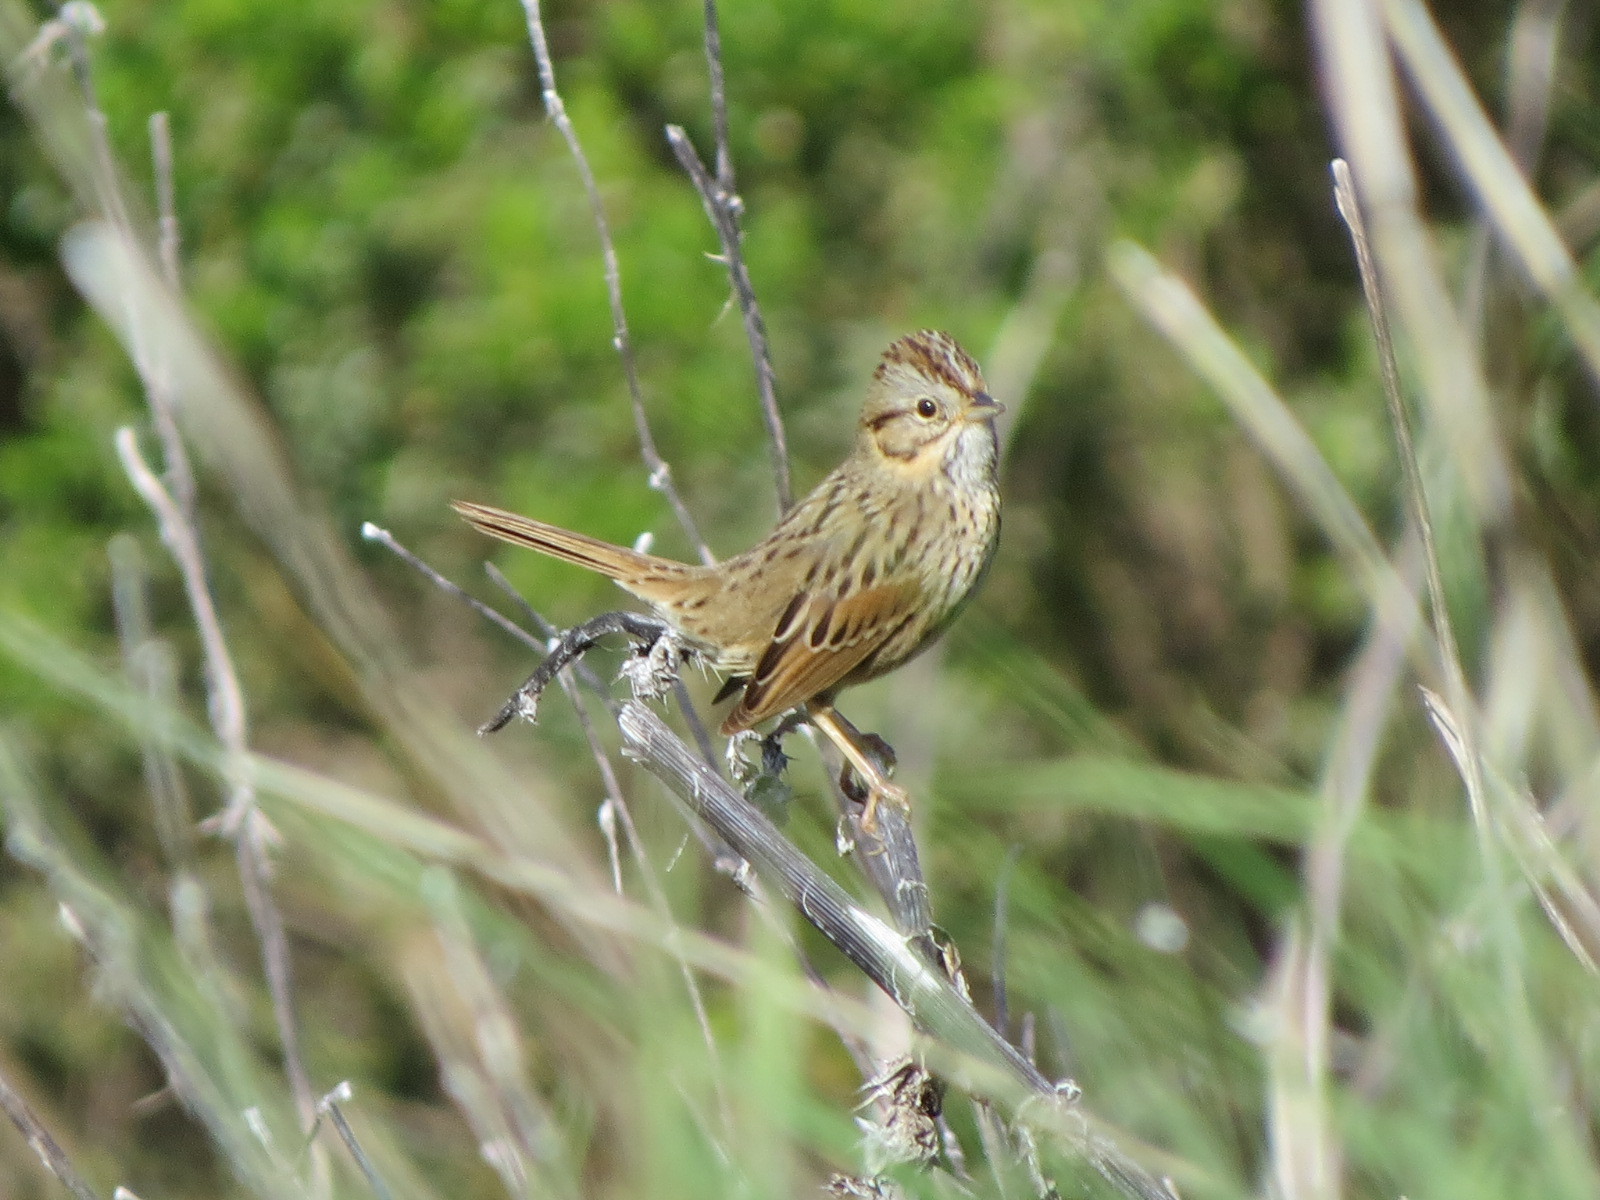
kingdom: Animalia
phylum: Chordata
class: Aves
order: Passeriformes
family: Passerellidae
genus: Melospiza
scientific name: Melospiza lincolnii
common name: Lincoln's sparrow
